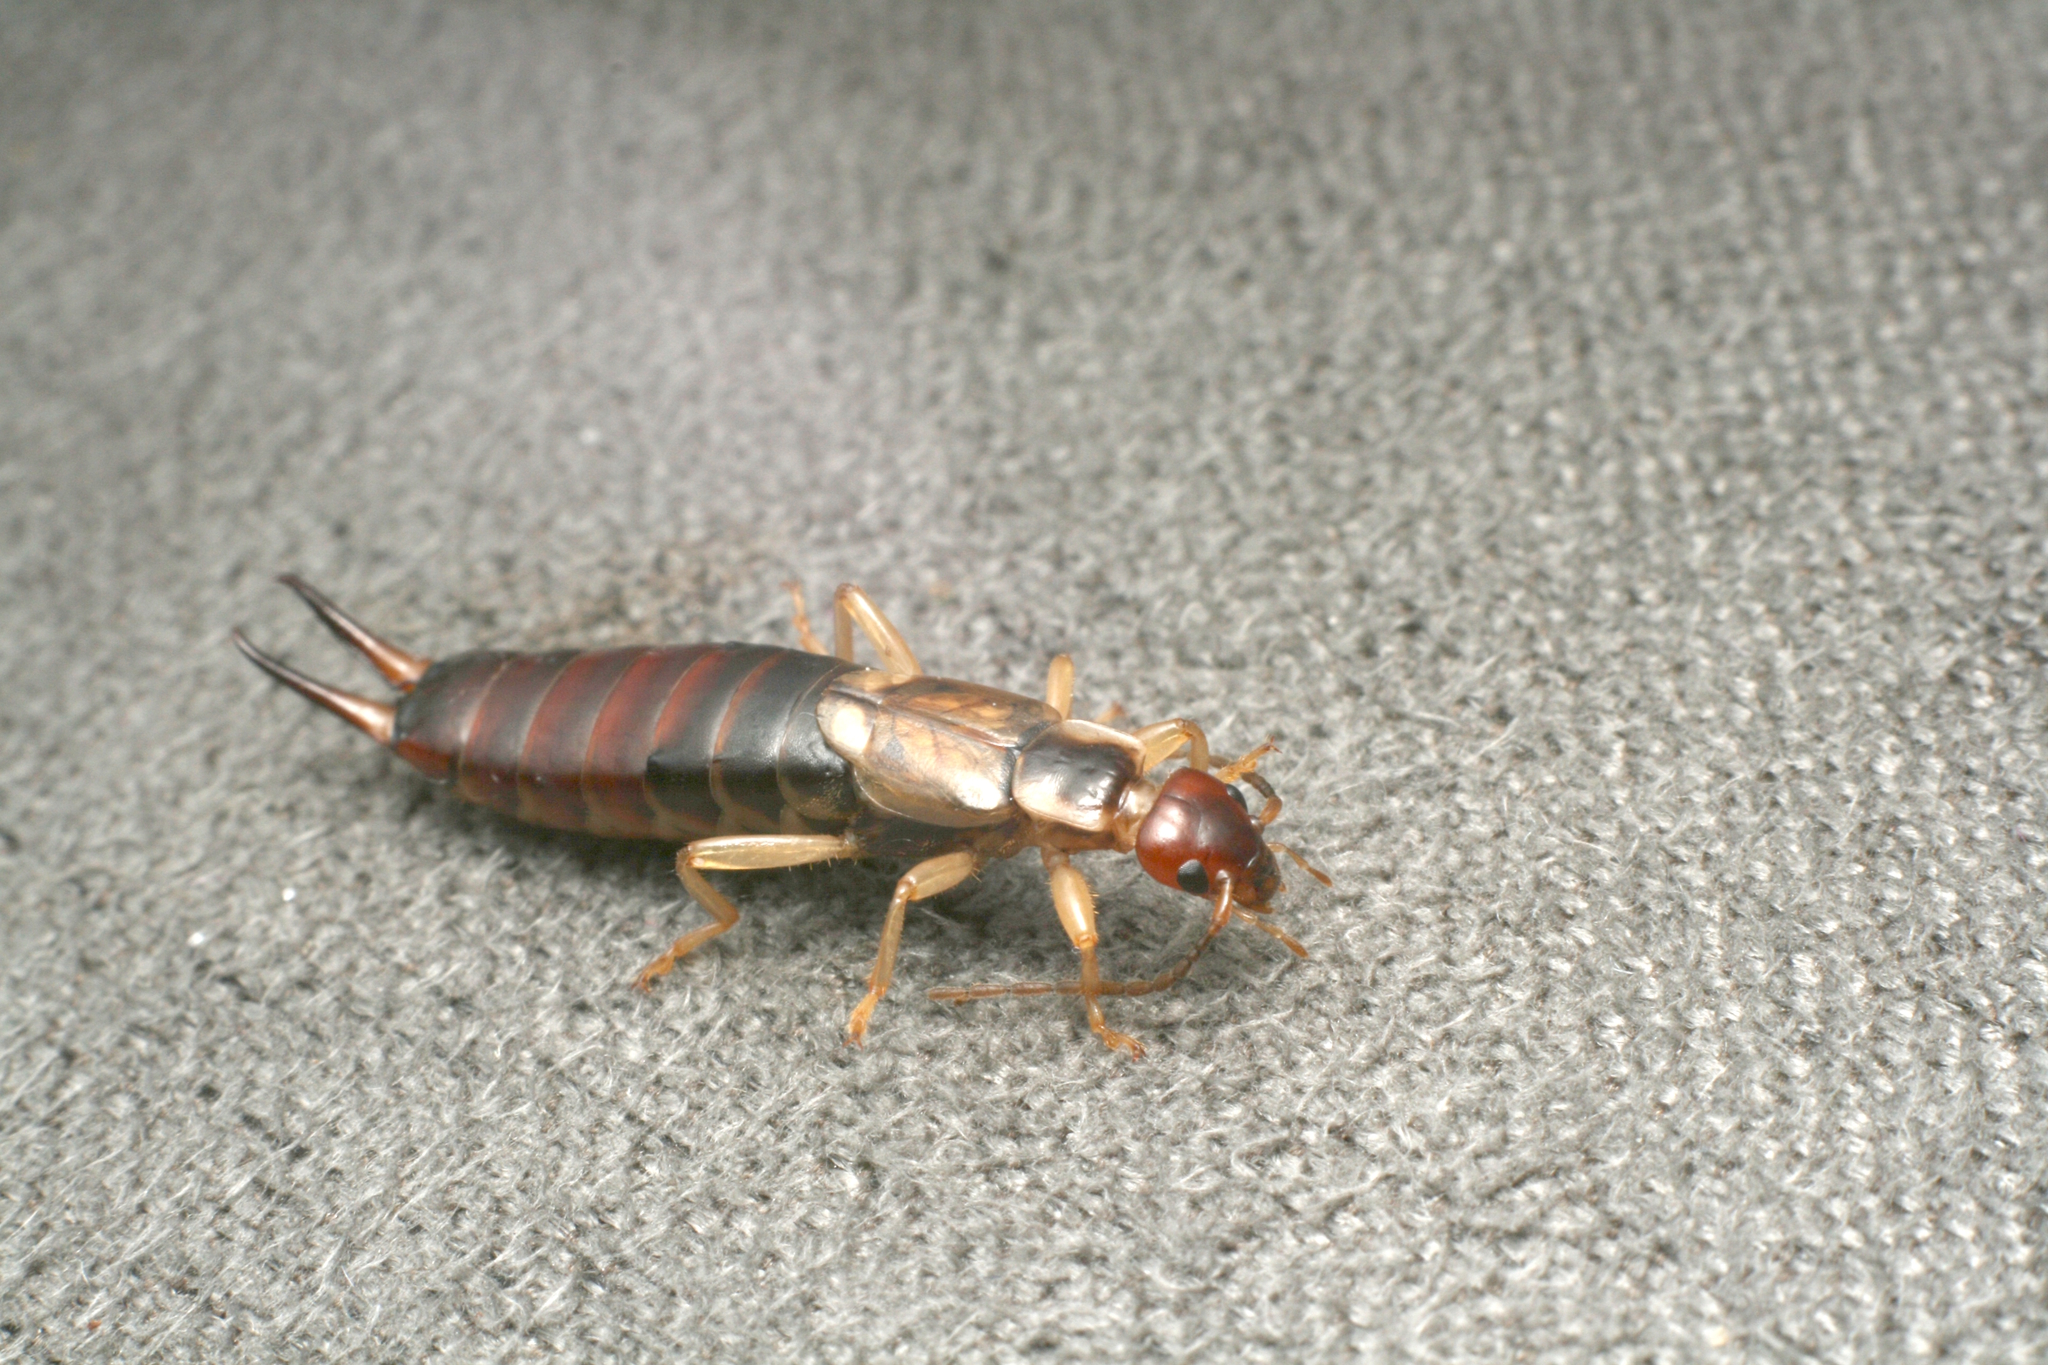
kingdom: Animalia
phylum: Arthropoda
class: Insecta
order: Dermaptera
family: Forficulidae
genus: Forficula
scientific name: Forficula
